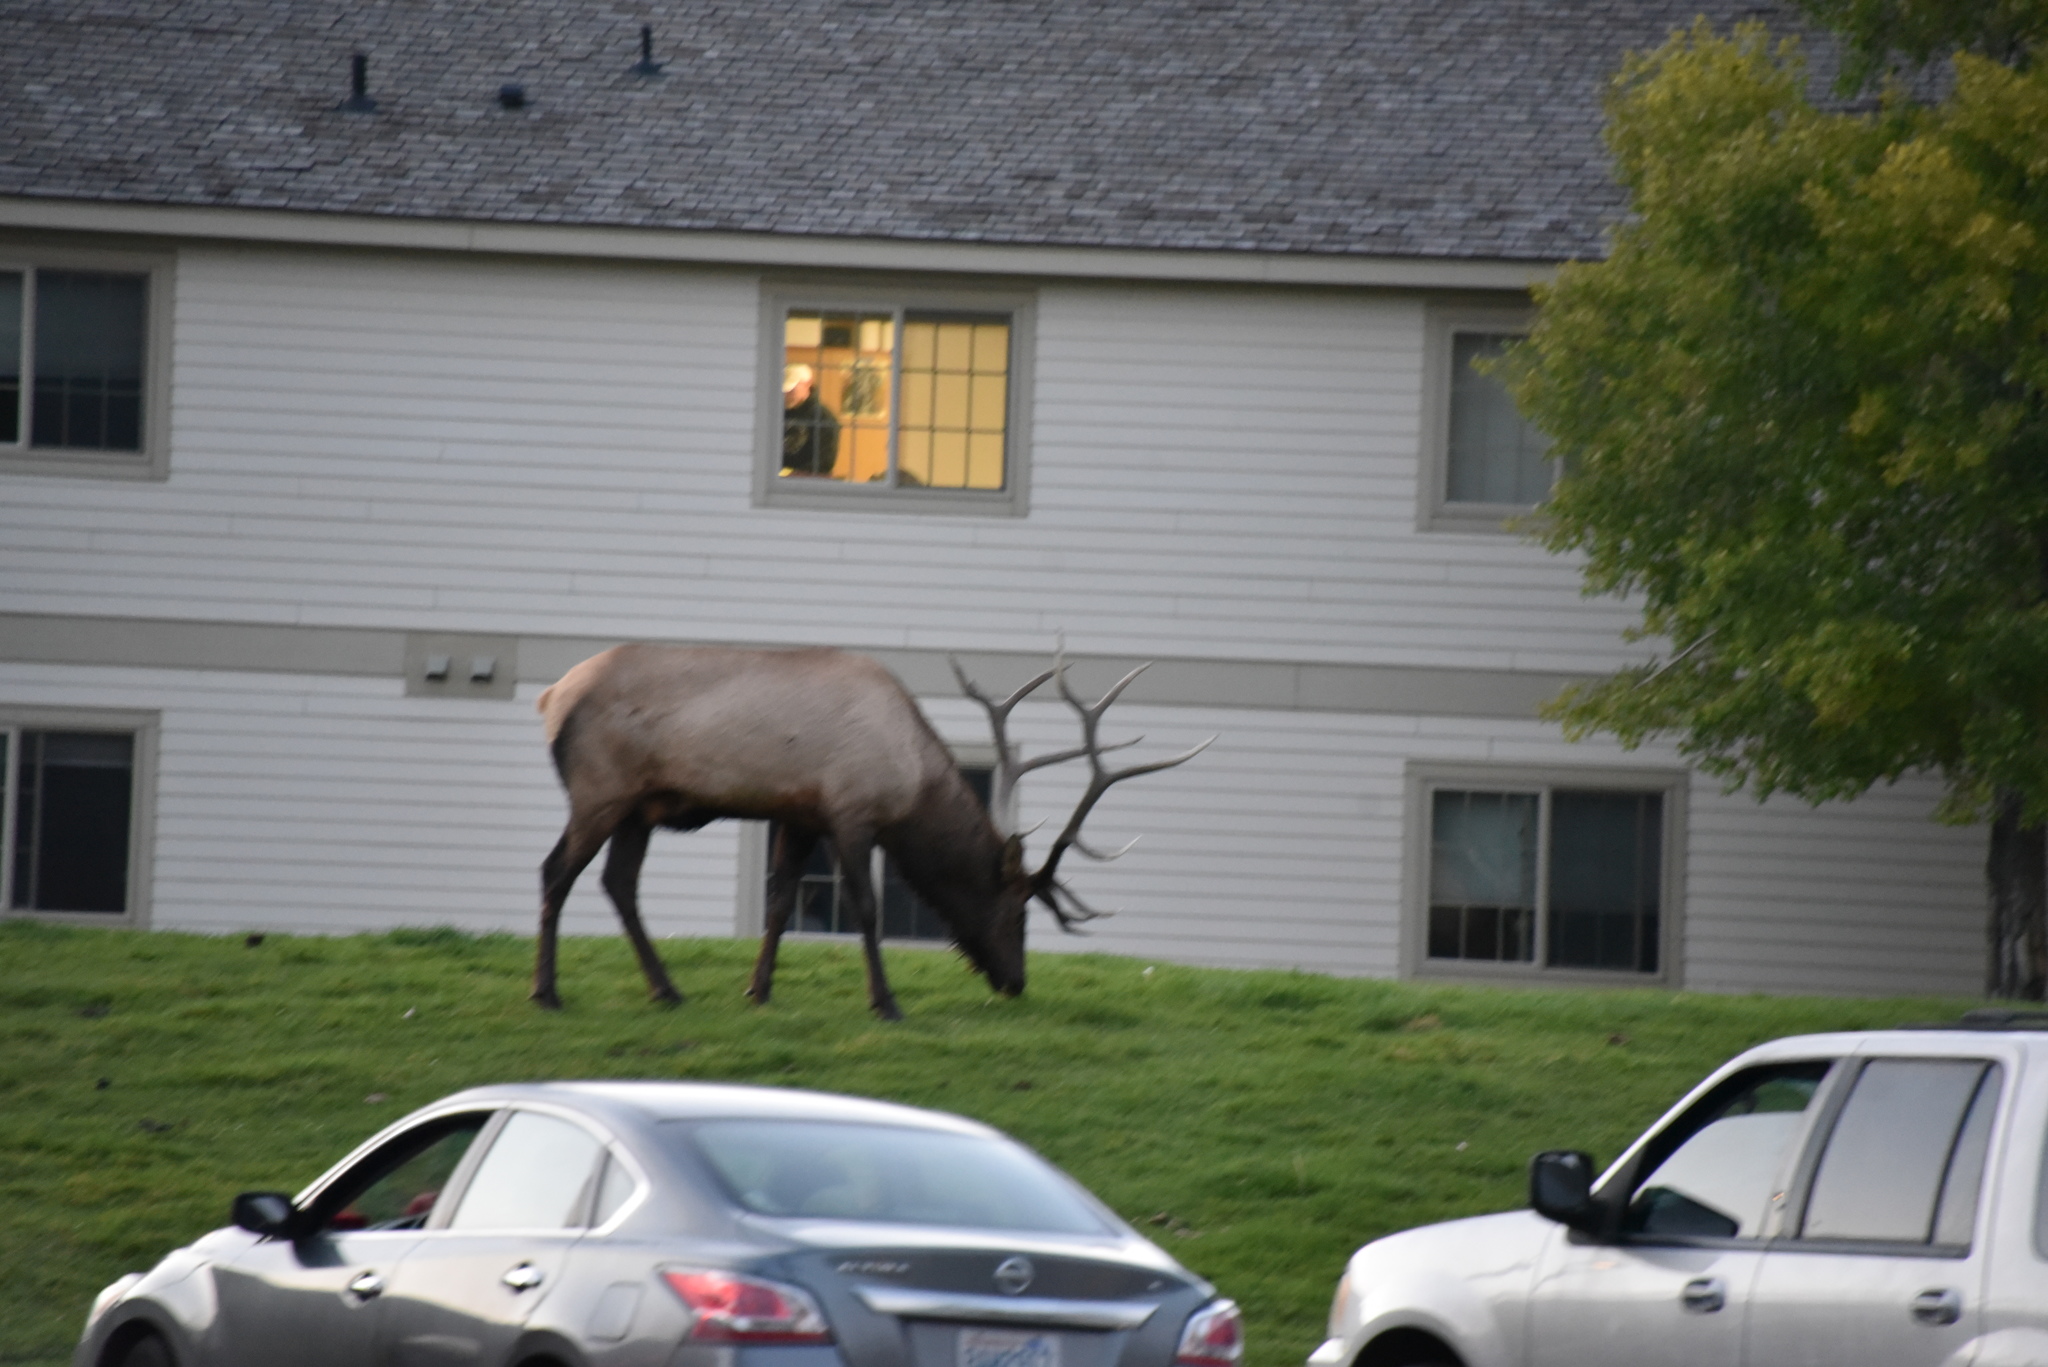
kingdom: Animalia
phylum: Chordata
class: Mammalia
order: Artiodactyla
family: Cervidae
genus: Cervus
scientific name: Cervus elaphus
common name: Red deer
